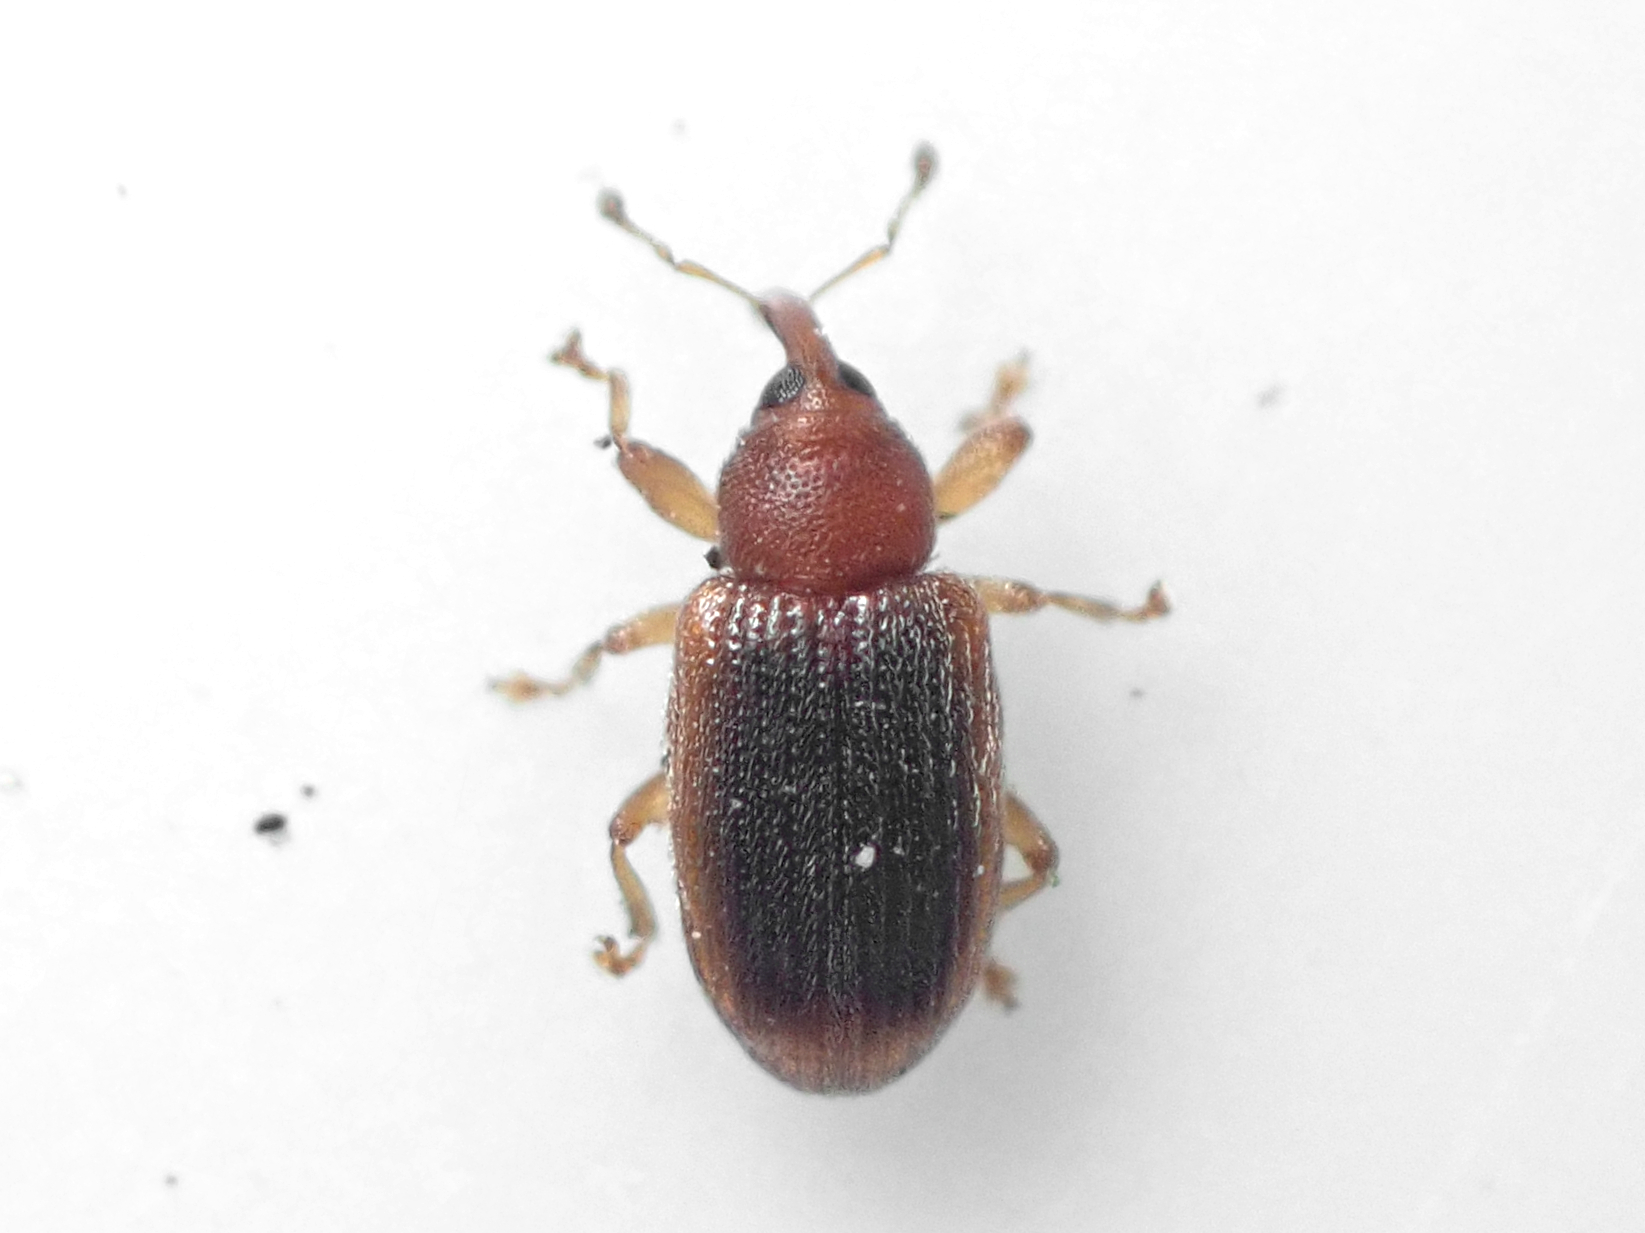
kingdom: Animalia
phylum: Arthropoda
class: Insecta
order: Coleoptera
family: Curculionidae
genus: Aneuma
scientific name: Aneuma
